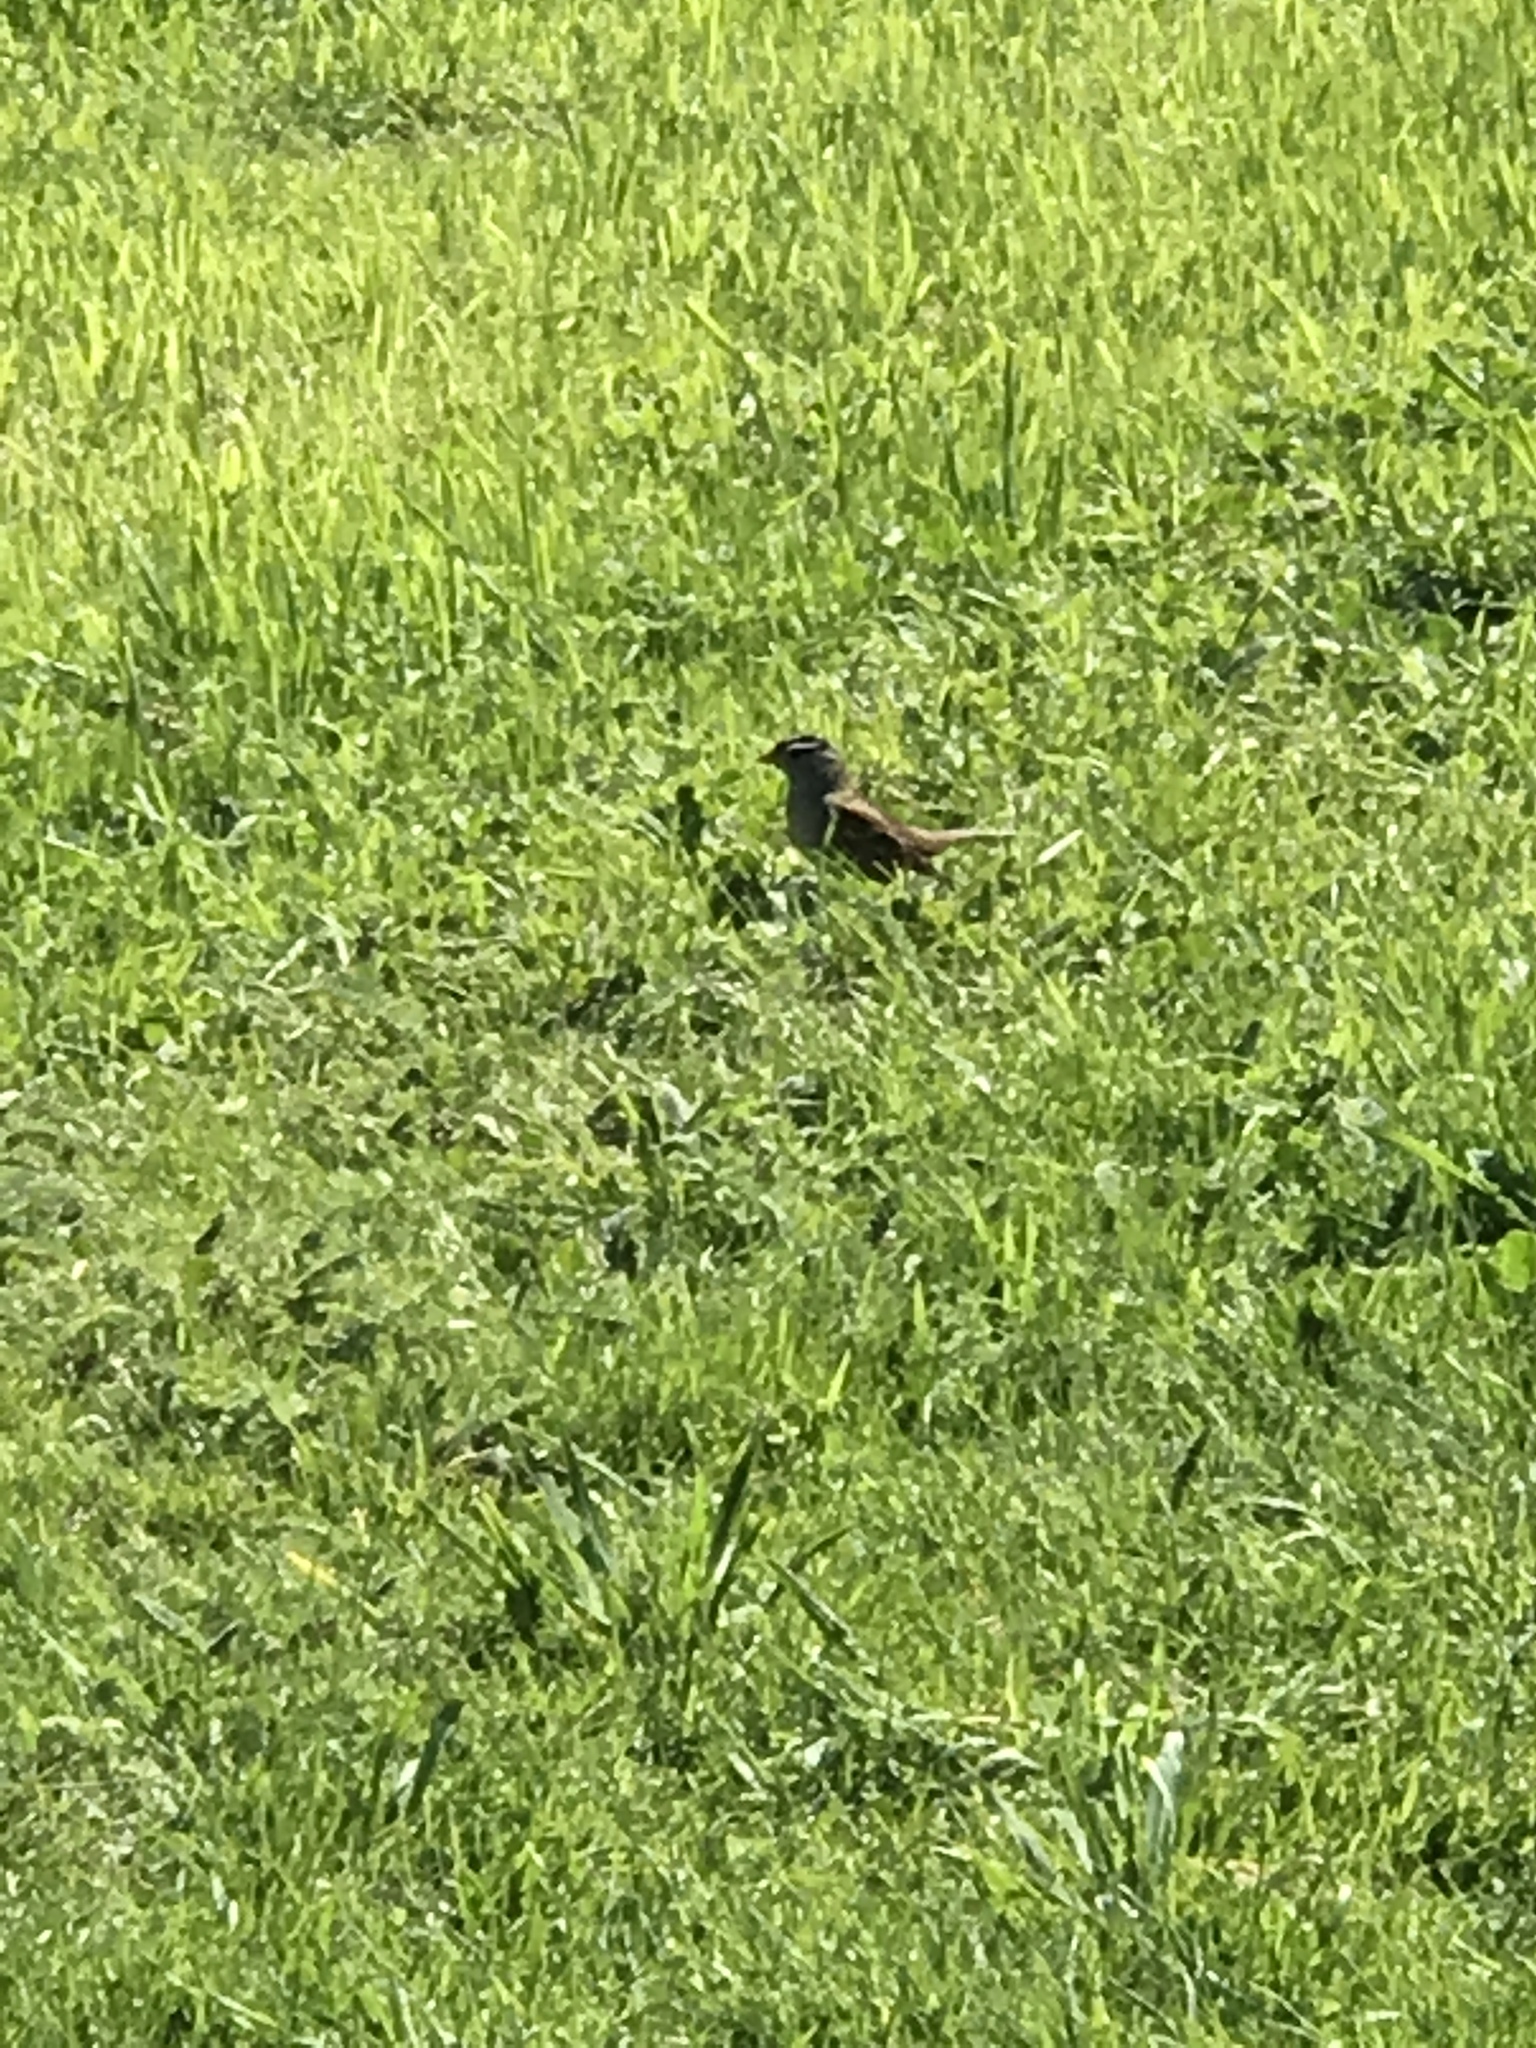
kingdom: Animalia
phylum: Chordata
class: Aves
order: Passeriformes
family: Passerellidae
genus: Zonotrichia
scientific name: Zonotrichia leucophrys
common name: White-crowned sparrow
